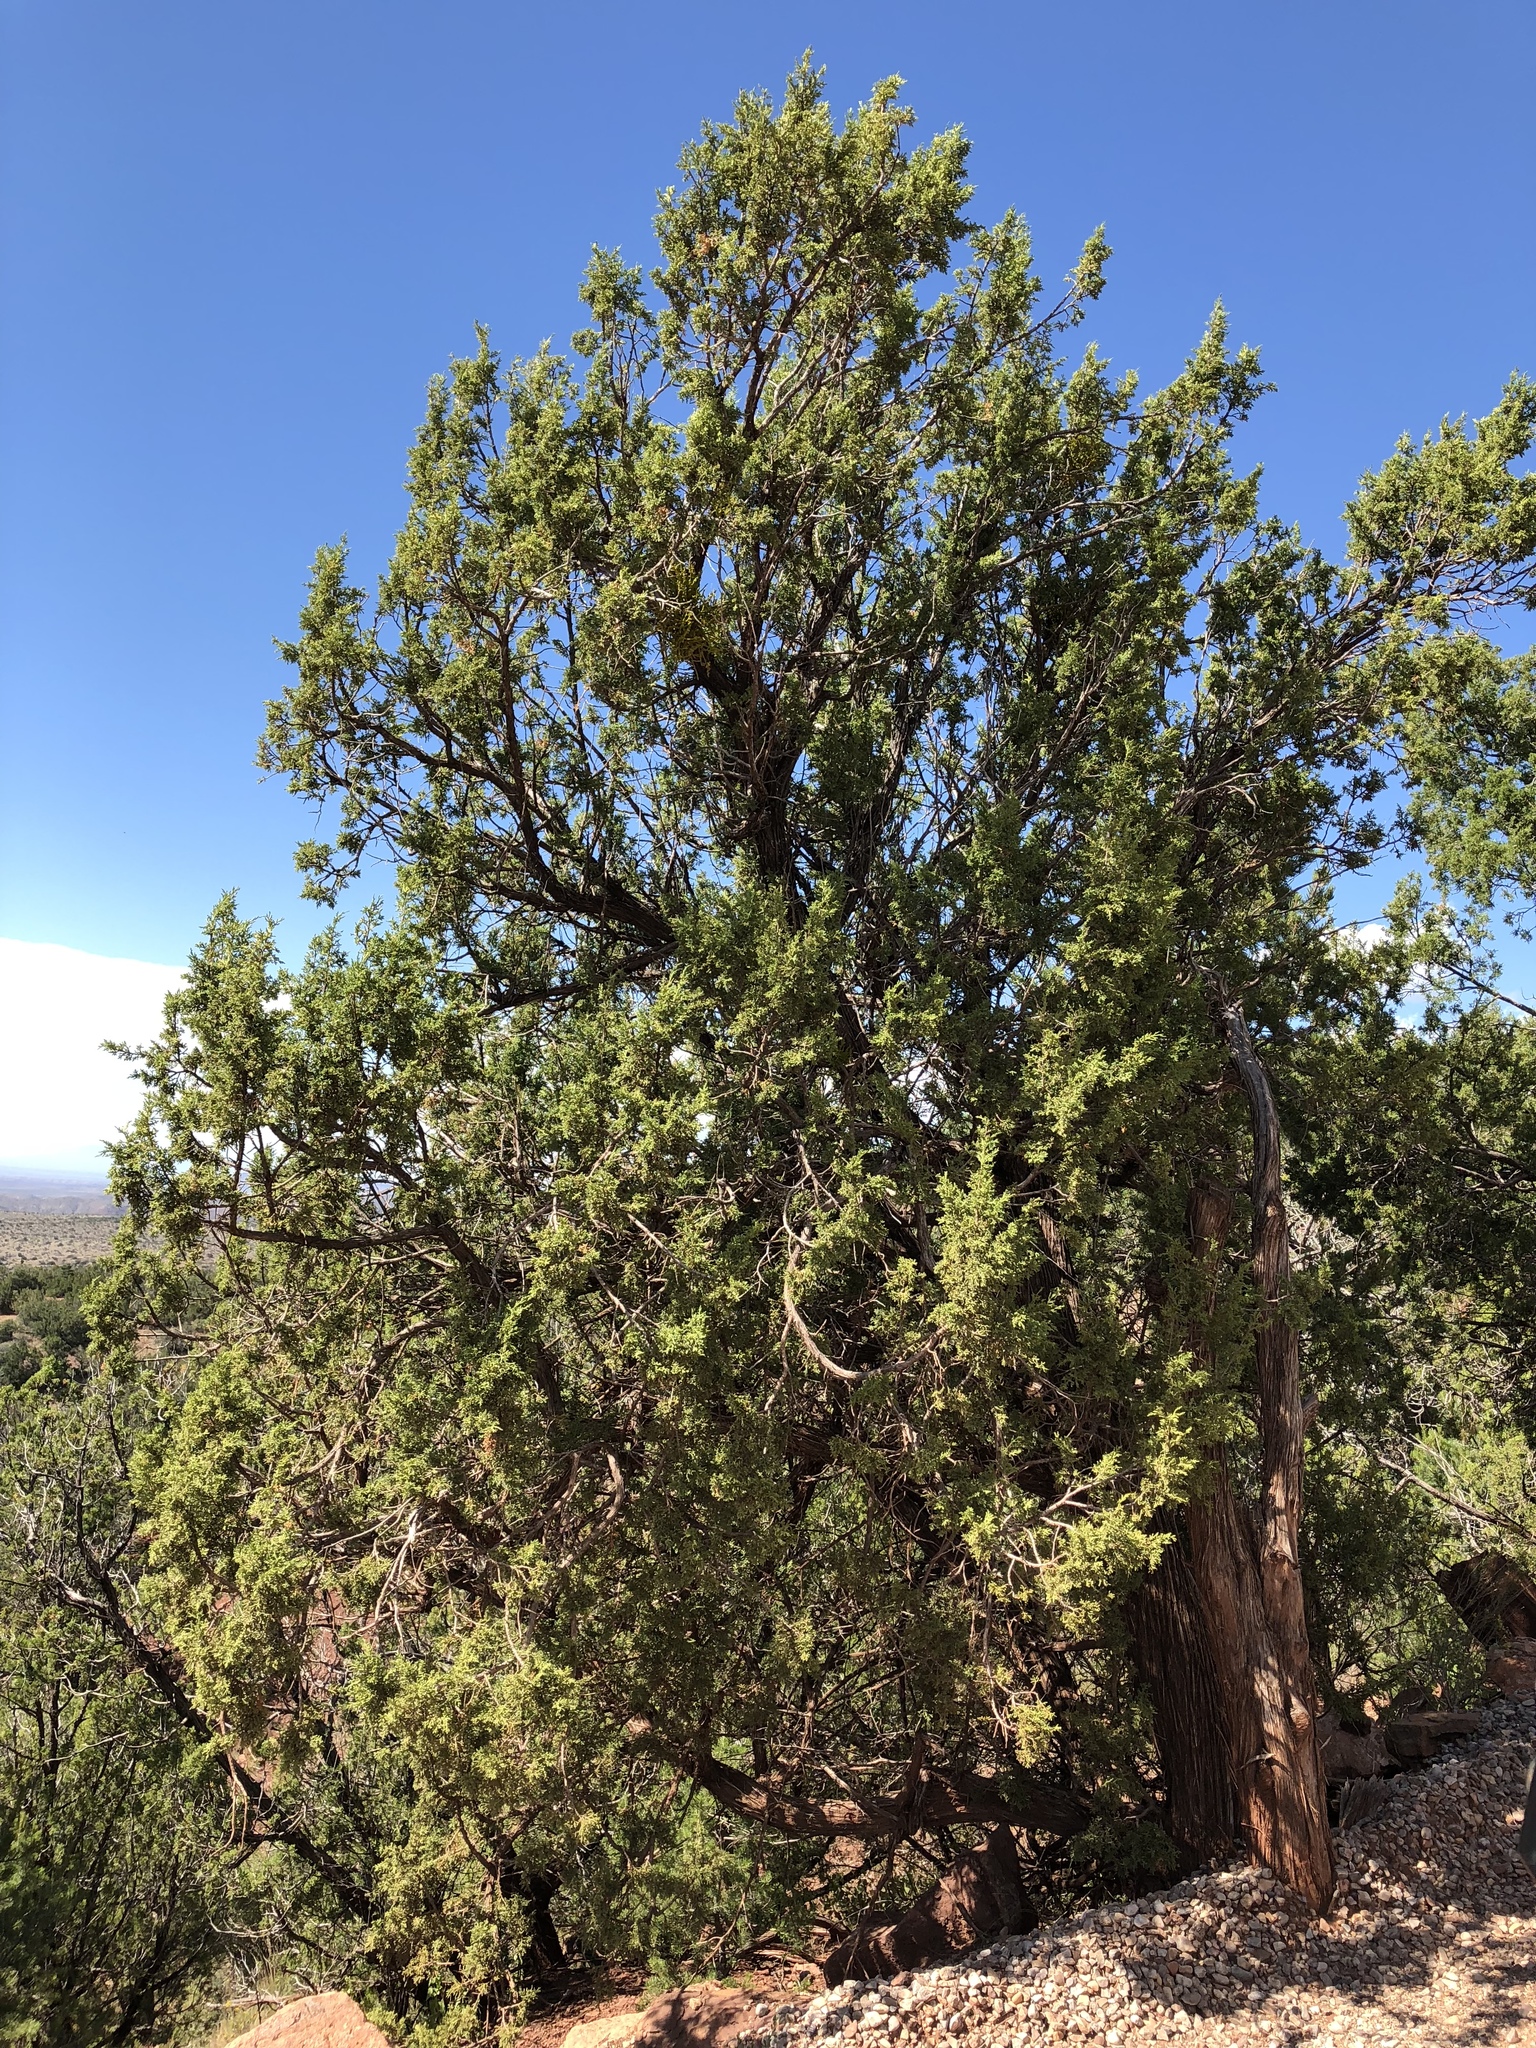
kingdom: Plantae
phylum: Tracheophyta
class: Pinopsida
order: Pinales
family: Cupressaceae
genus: Juniperus
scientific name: Juniperus monosperma
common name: One-seed juniper
